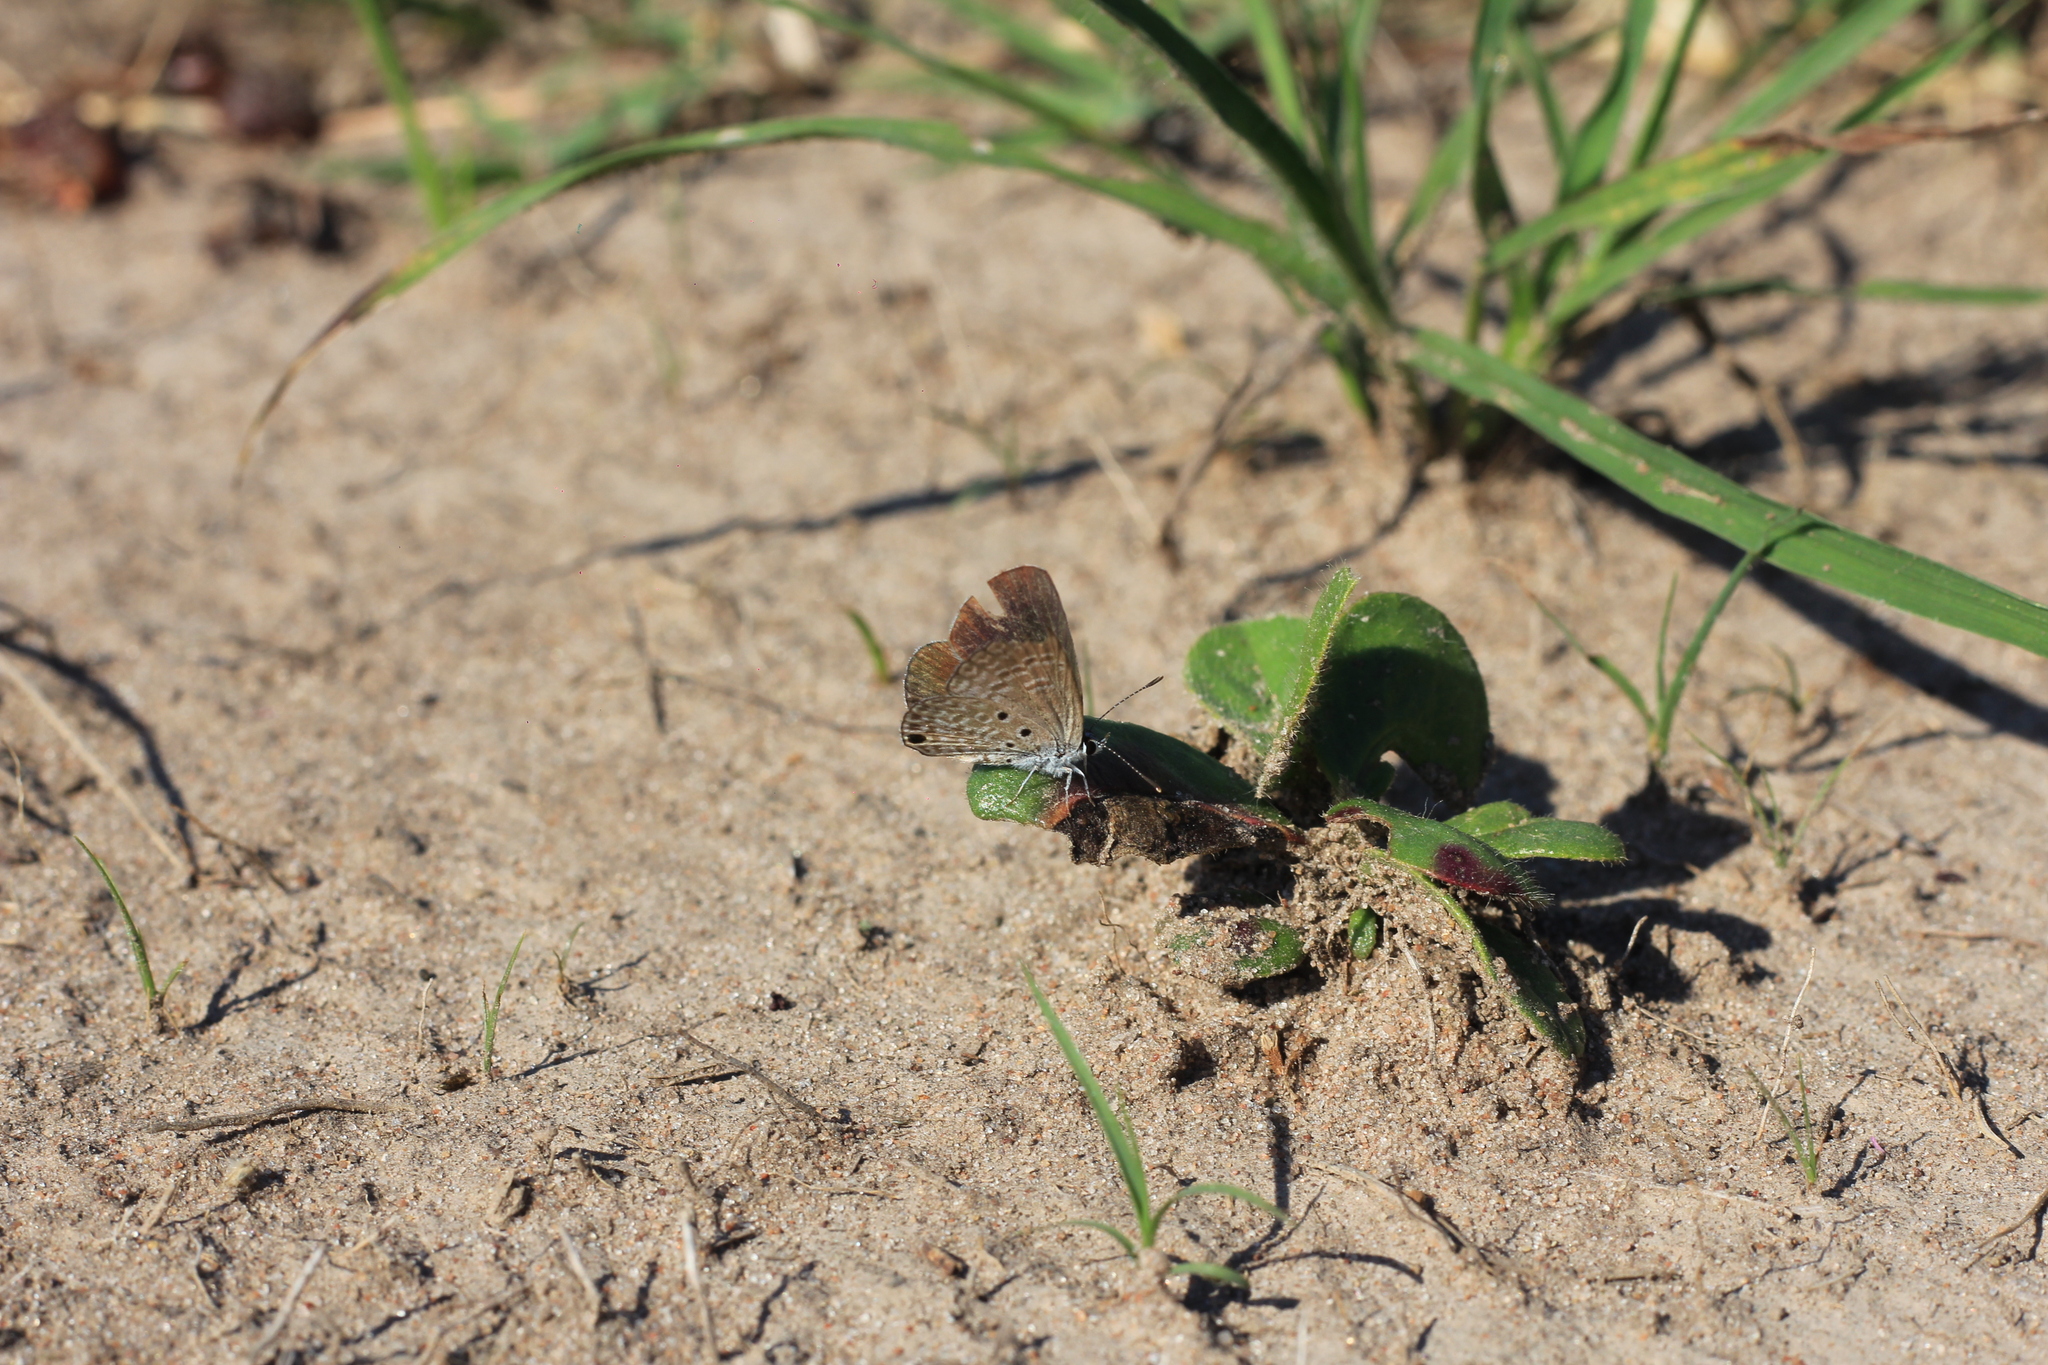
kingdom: Animalia
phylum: Arthropoda
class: Insecta
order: Lepidoptera
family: Lycaenidae
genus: Hemiargus
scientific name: Hemiargus hanno
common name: Common blue
